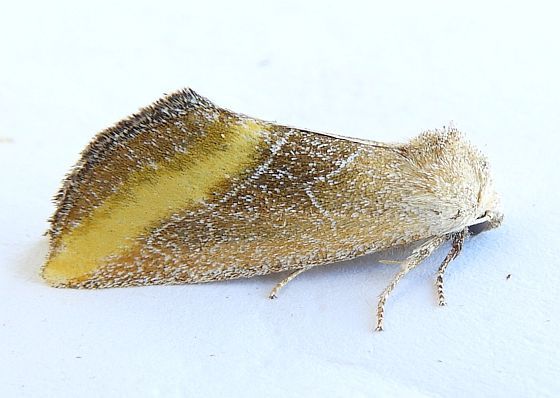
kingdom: Animalia
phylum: Arthropoda
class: Insecta
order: Lepidoptera
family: Noctuidae
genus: Plagiomimicus
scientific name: Plagiomimicus aureolum
